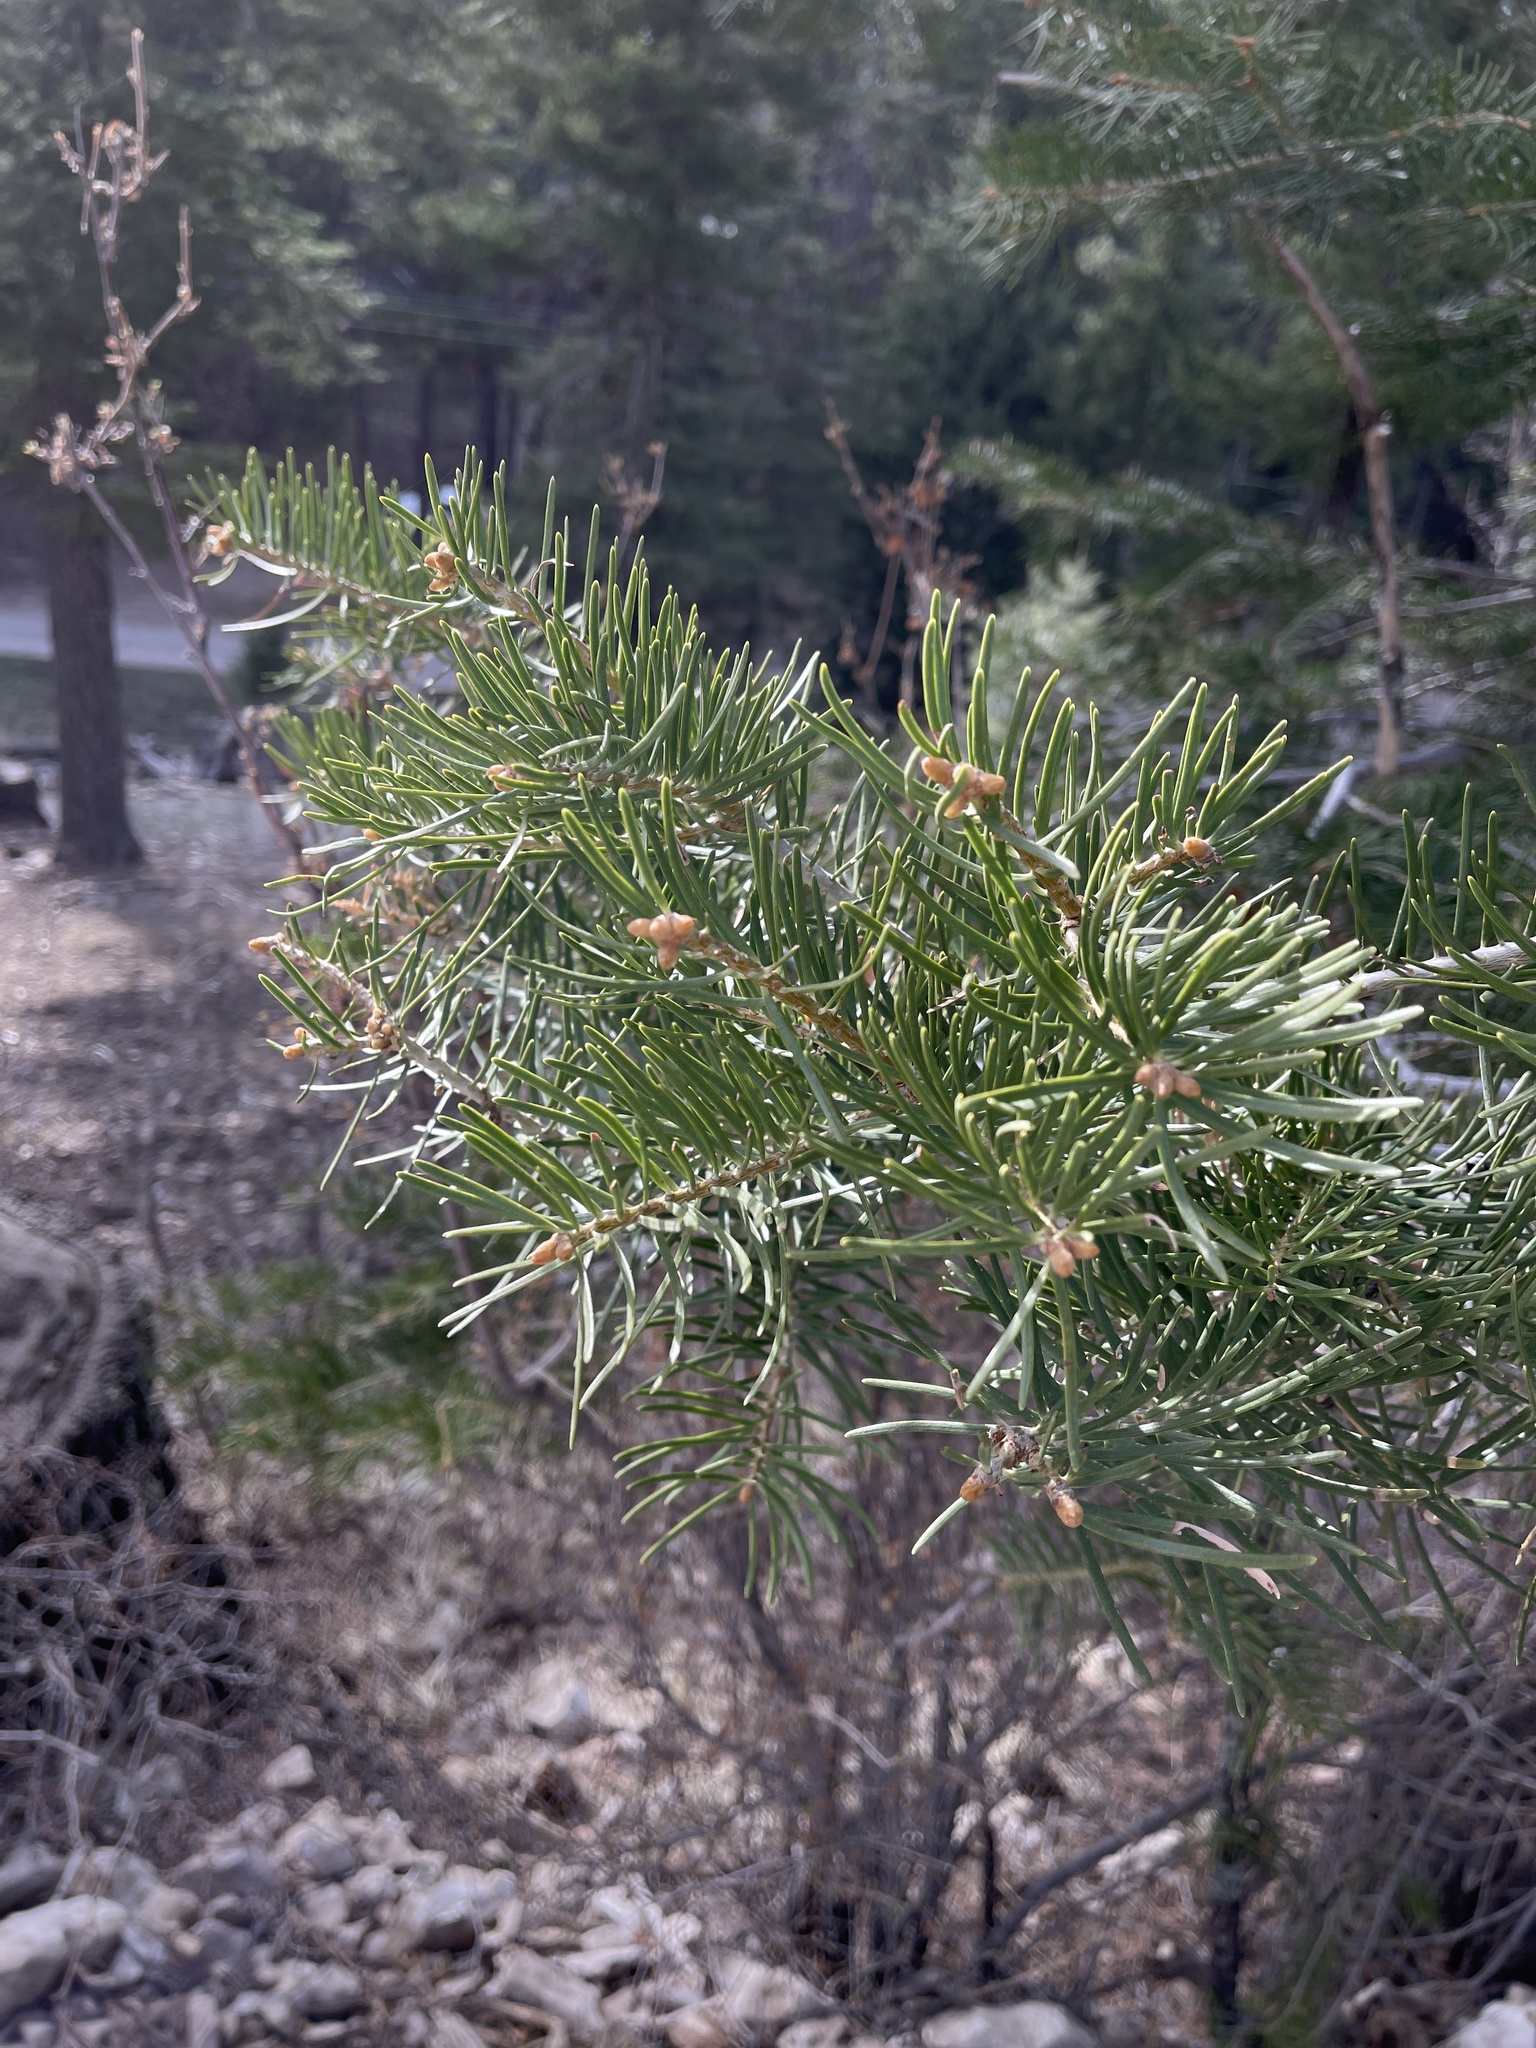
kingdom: Plantae
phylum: Tracheophyta
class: Pinopsida
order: Pinales
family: Pinaceae
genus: Pseudotsuga
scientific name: Pseudotsuga menziesii
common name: Douglas fir
